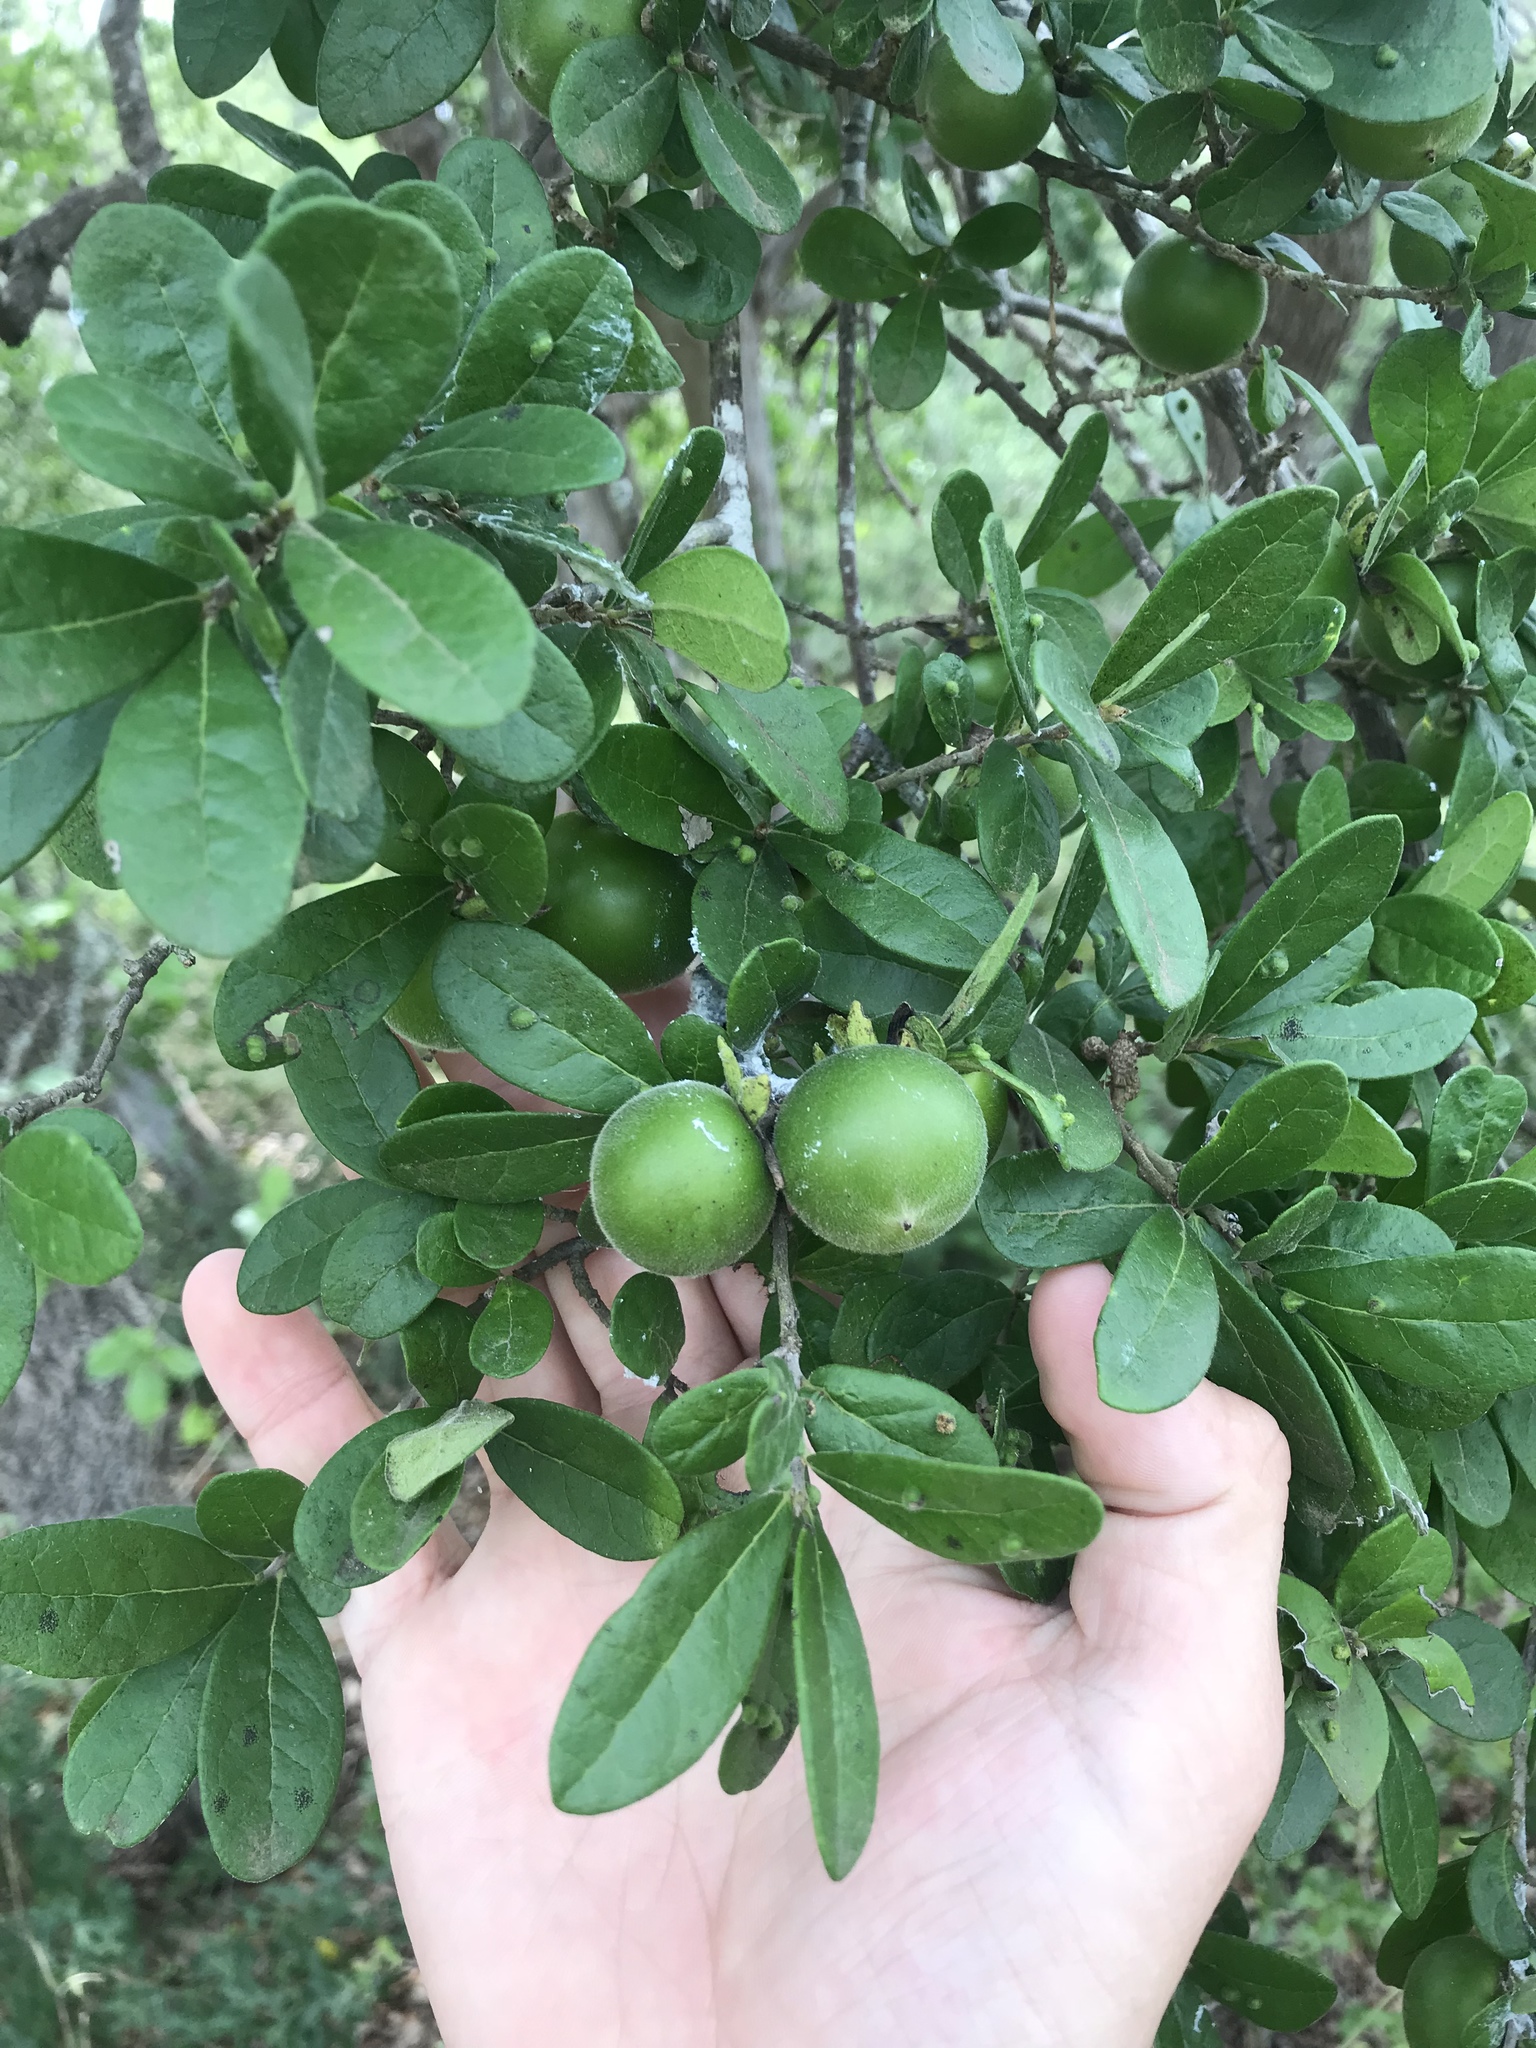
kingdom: Plantae
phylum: Tracheophyta
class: Magnoliopsida
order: Ericales
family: Ebenaceae
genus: Diospyros
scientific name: Diospyros texana
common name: Texas persimmon
